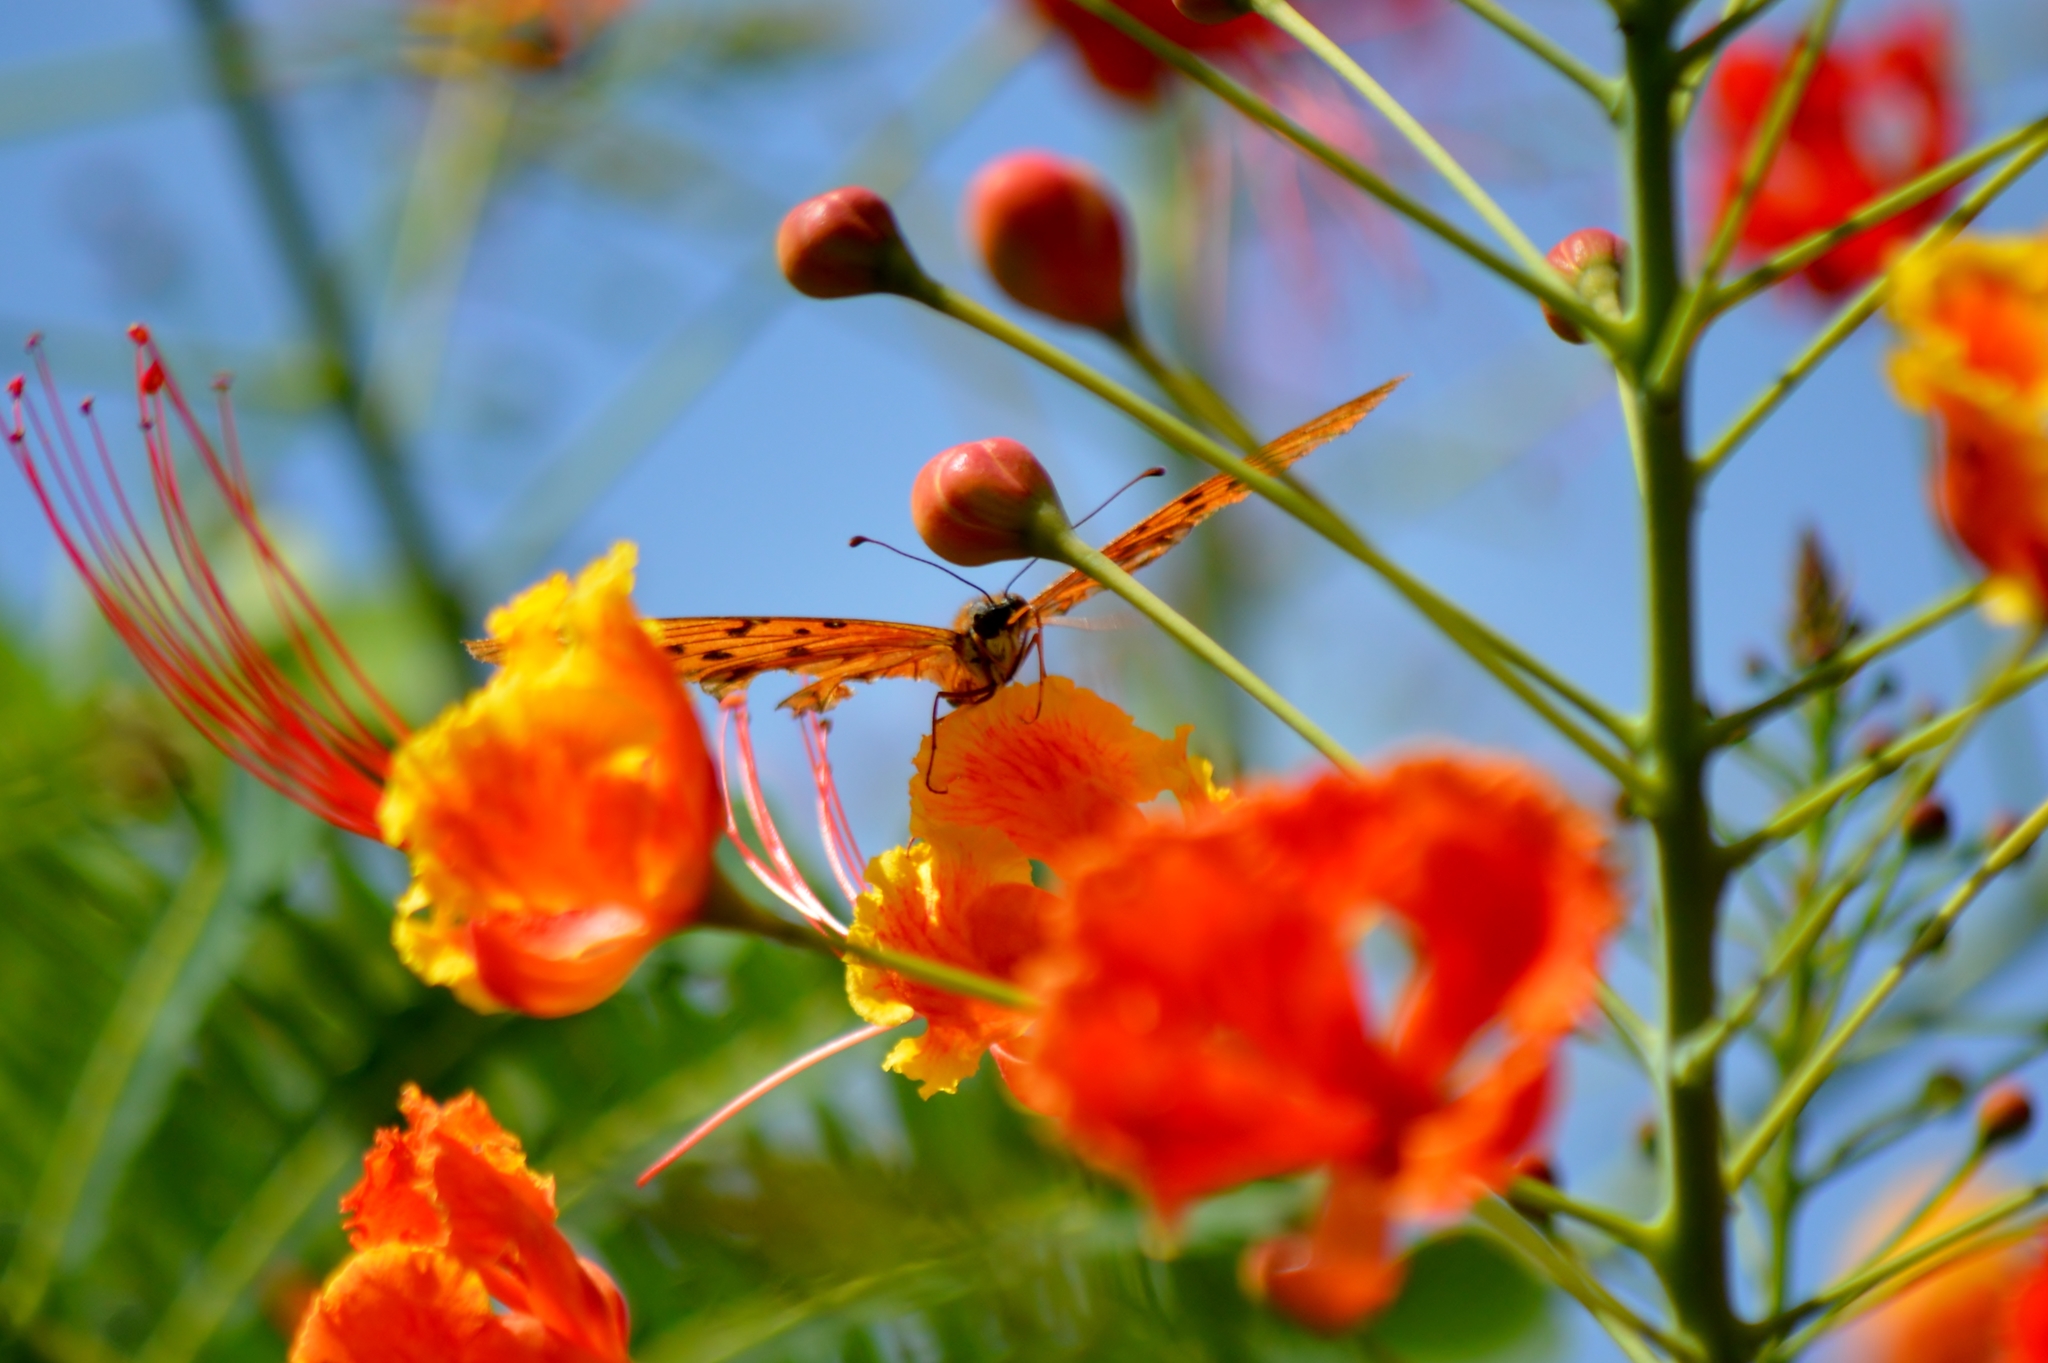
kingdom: Animalia
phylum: Arthropoda
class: Insecta
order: Lepidoptera
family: Nymphalidae
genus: Dione
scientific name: Dione vanillae
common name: Gulf fritillary
